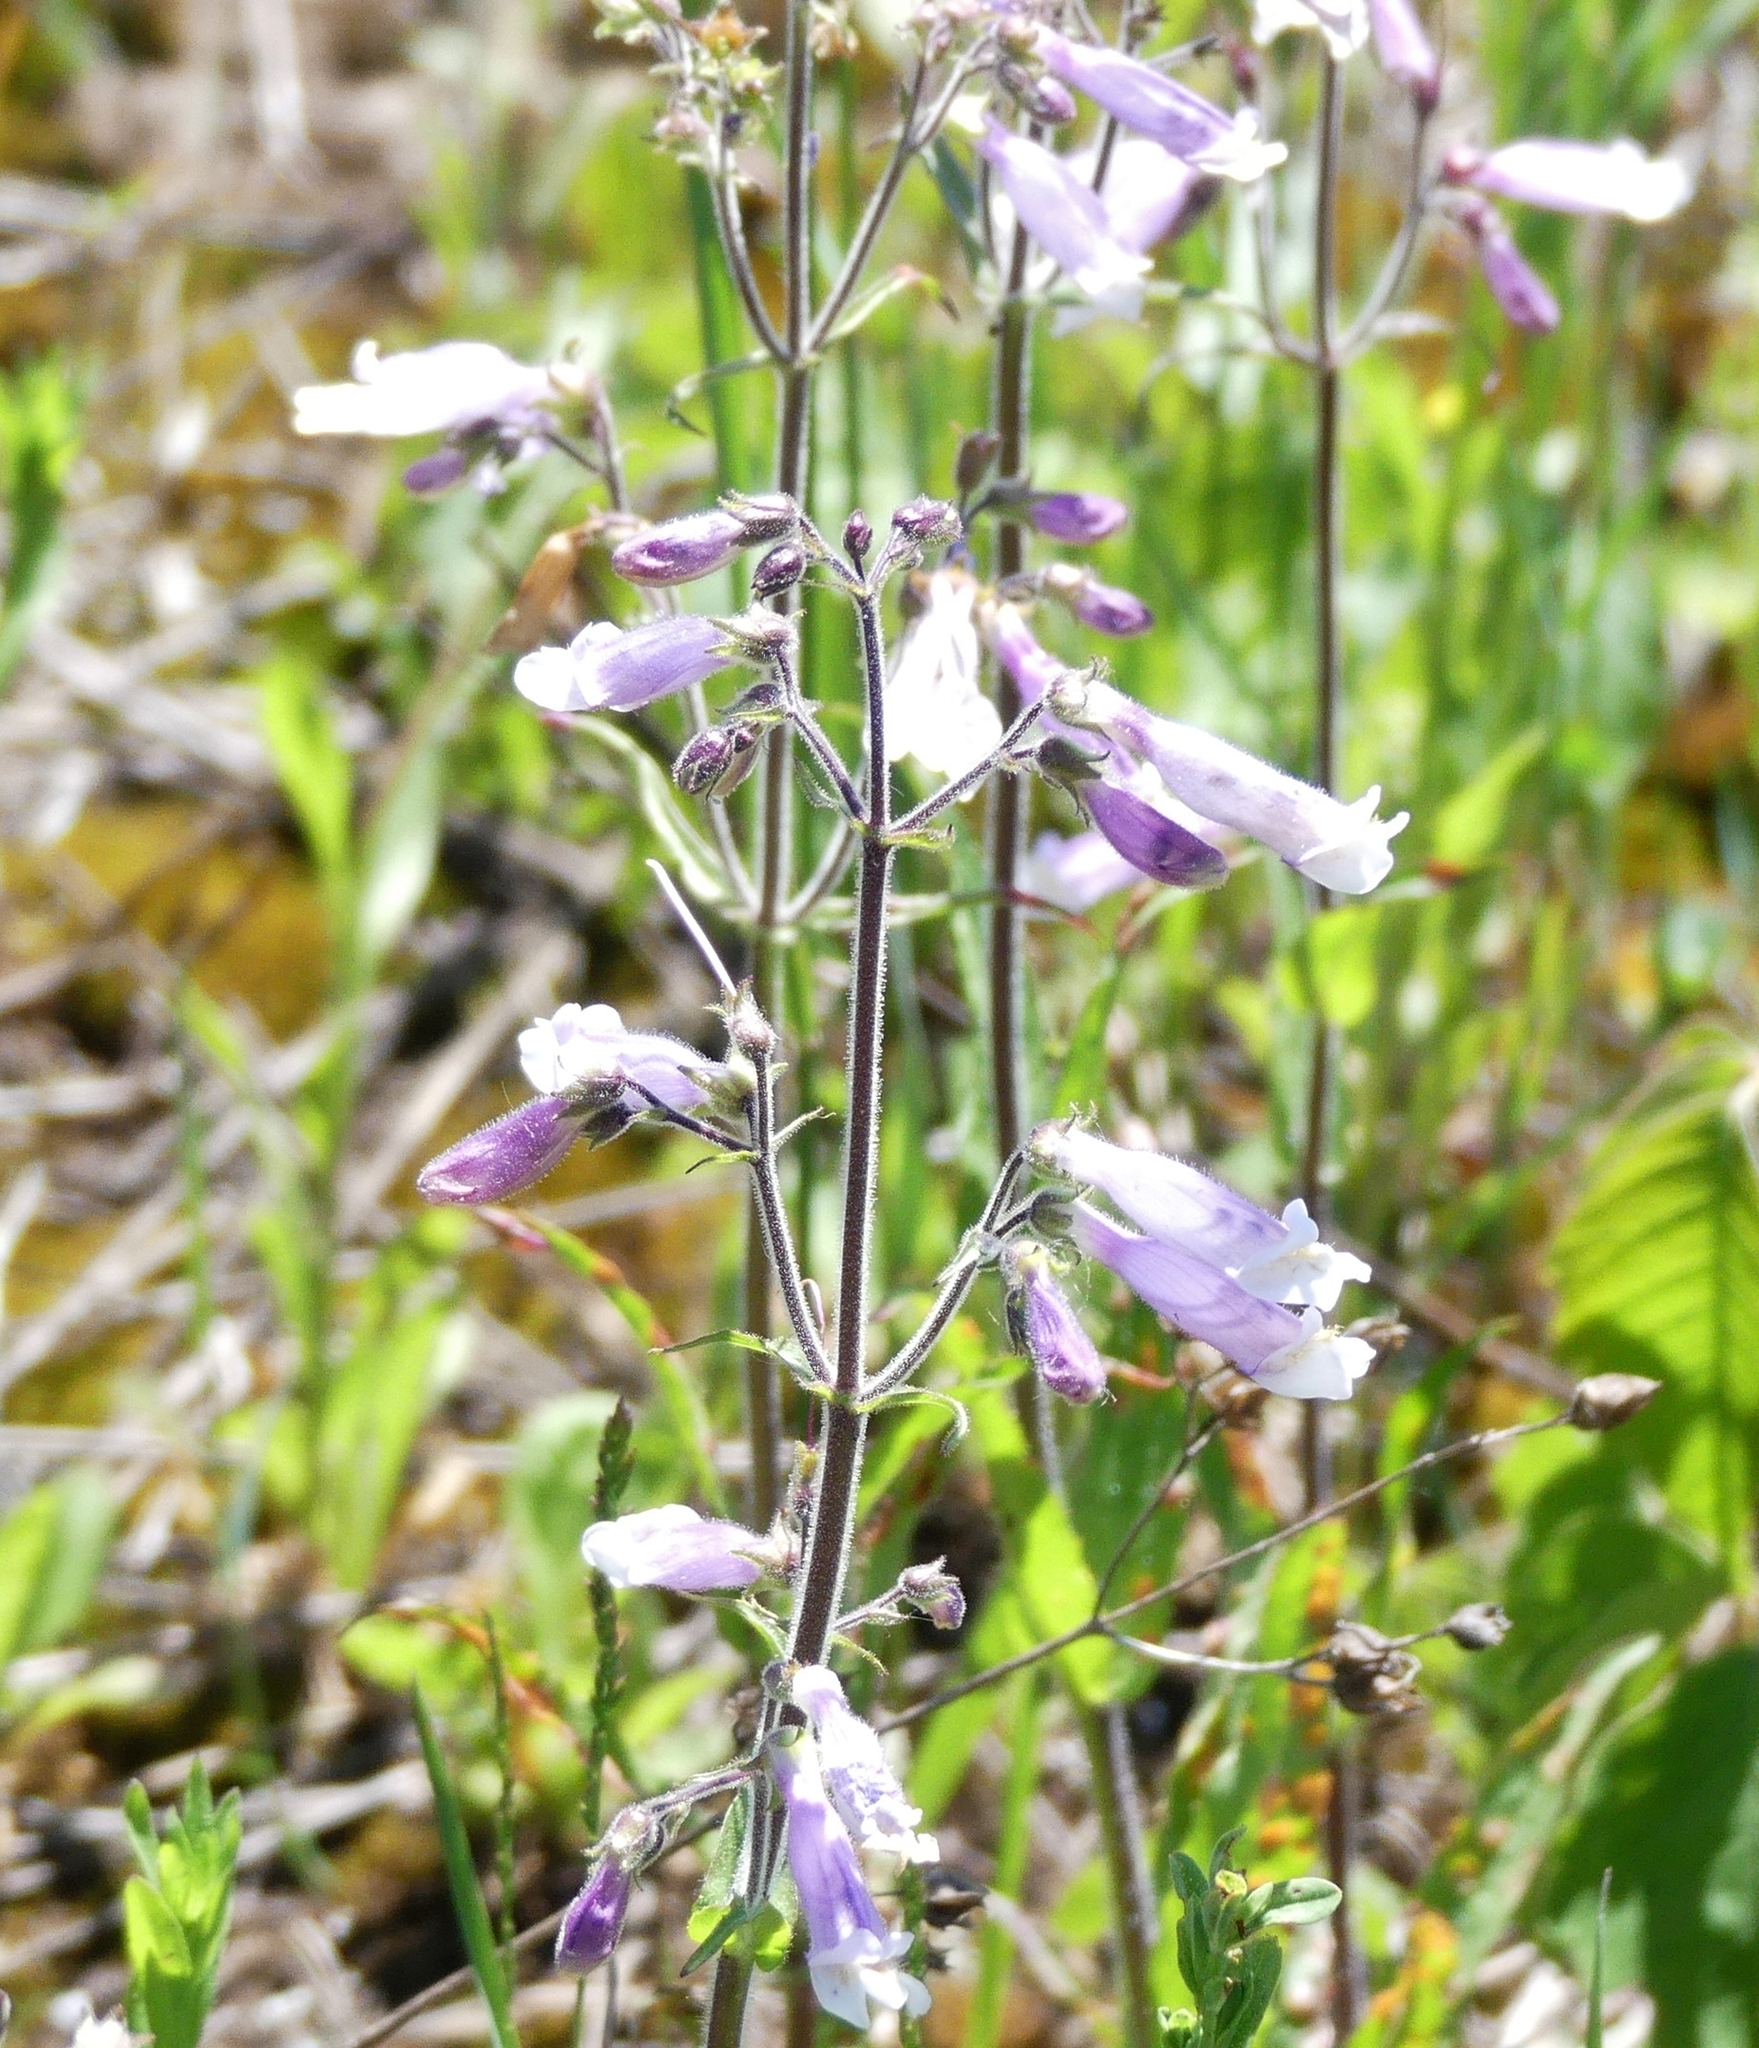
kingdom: Plantae
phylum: Tracheophyta
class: Magnoliopsida
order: Lamiales
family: Plantaginaceae
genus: Penstemon
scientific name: Penstemon hirsutus
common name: Hairy beardtongue
